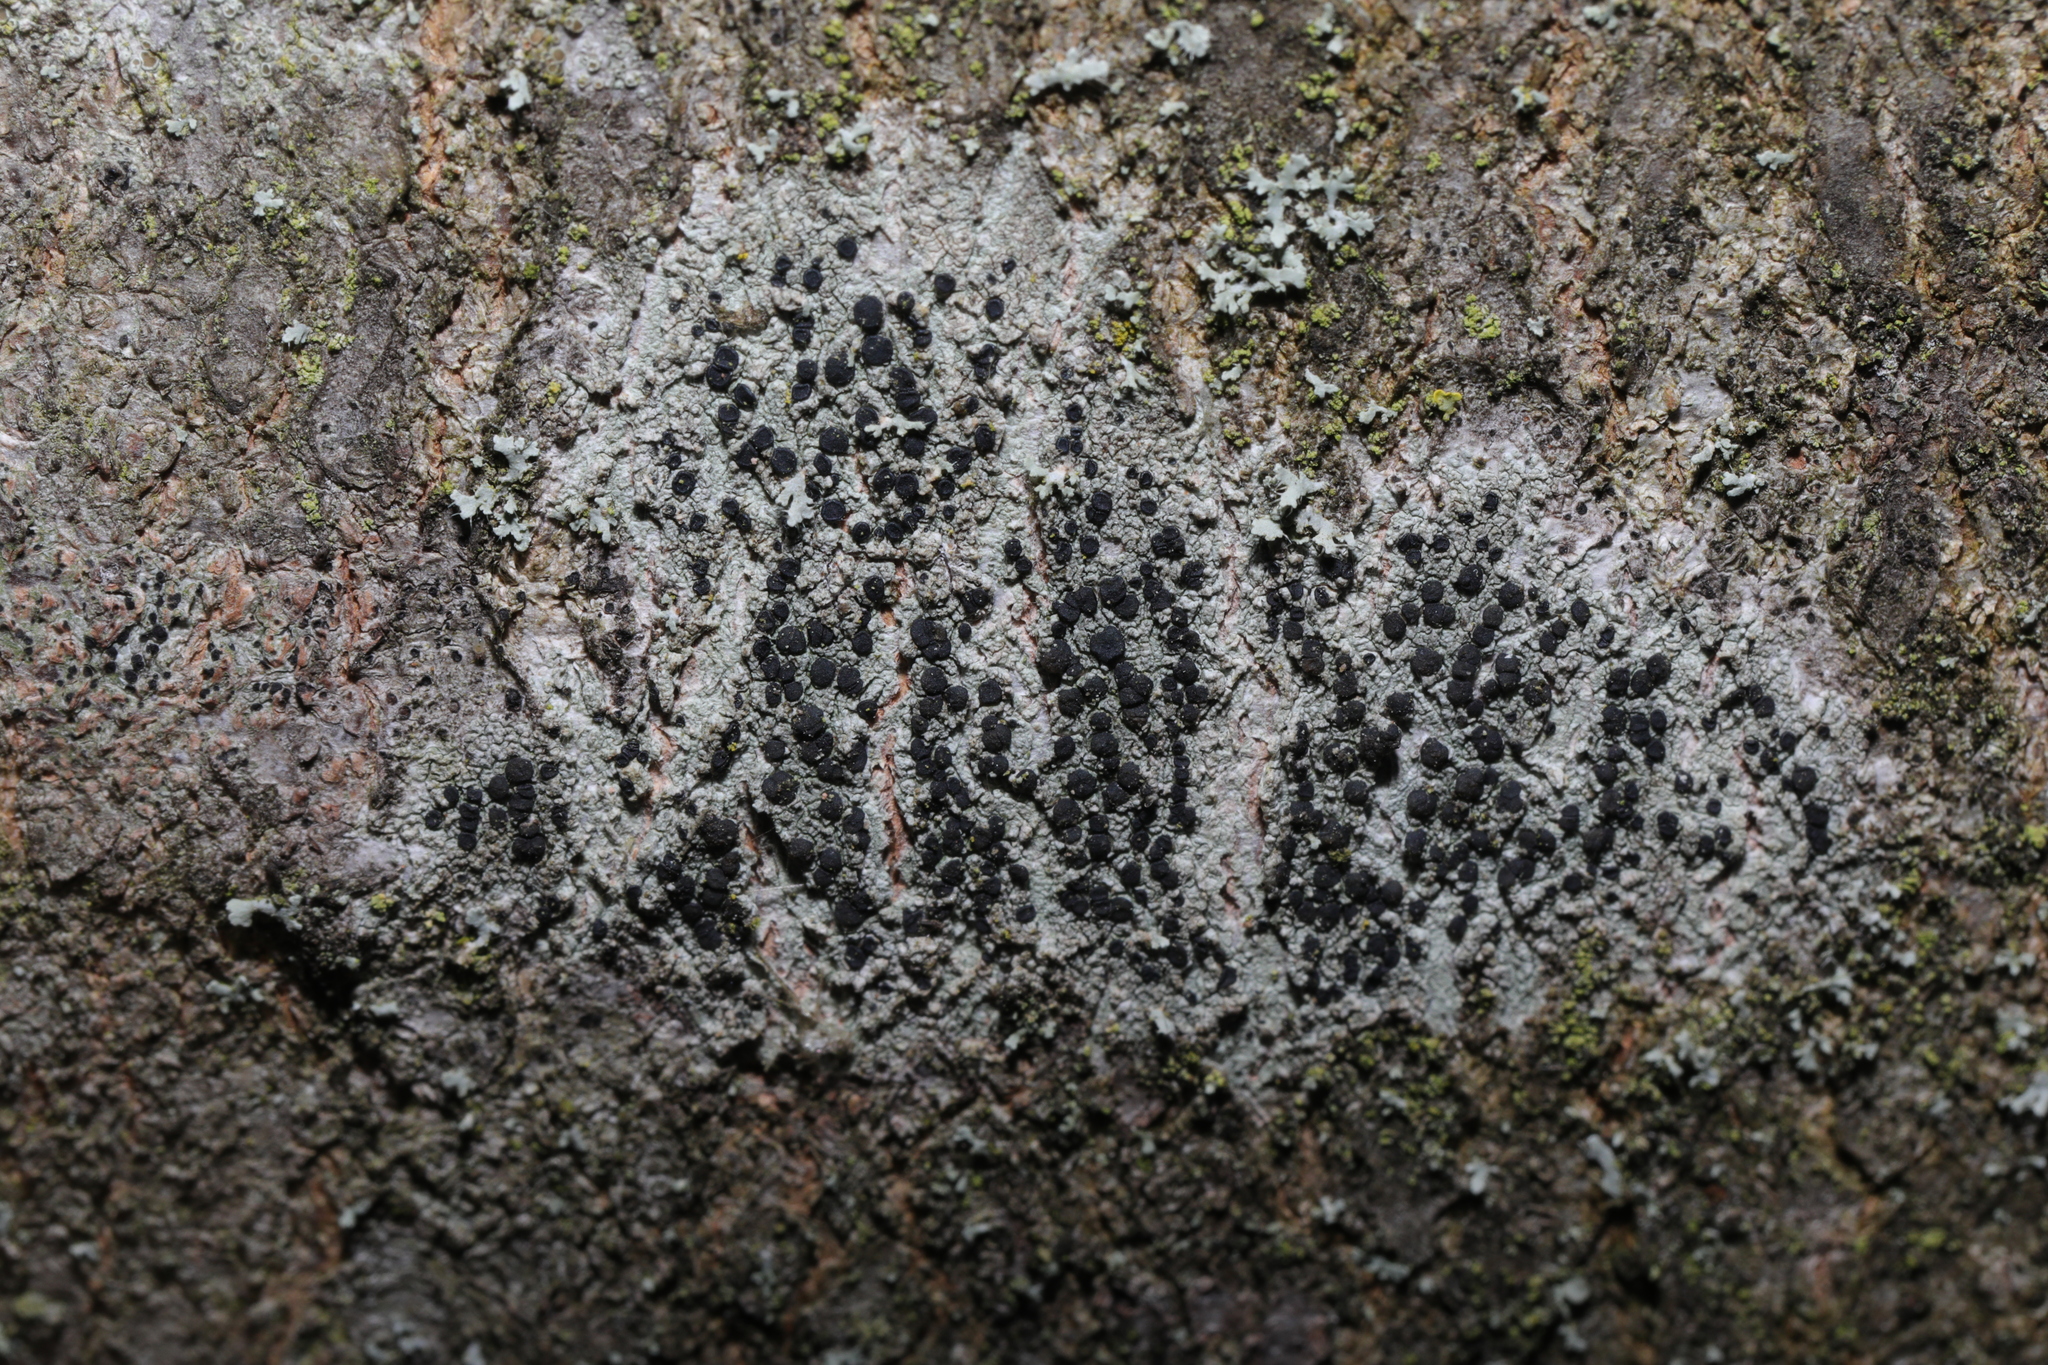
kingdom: Fungi
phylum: Ascomycota
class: Lecanoromycetes
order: Lecanorales
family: Lecanoraceae
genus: Lecidella
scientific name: Lecidella elaeochroma
